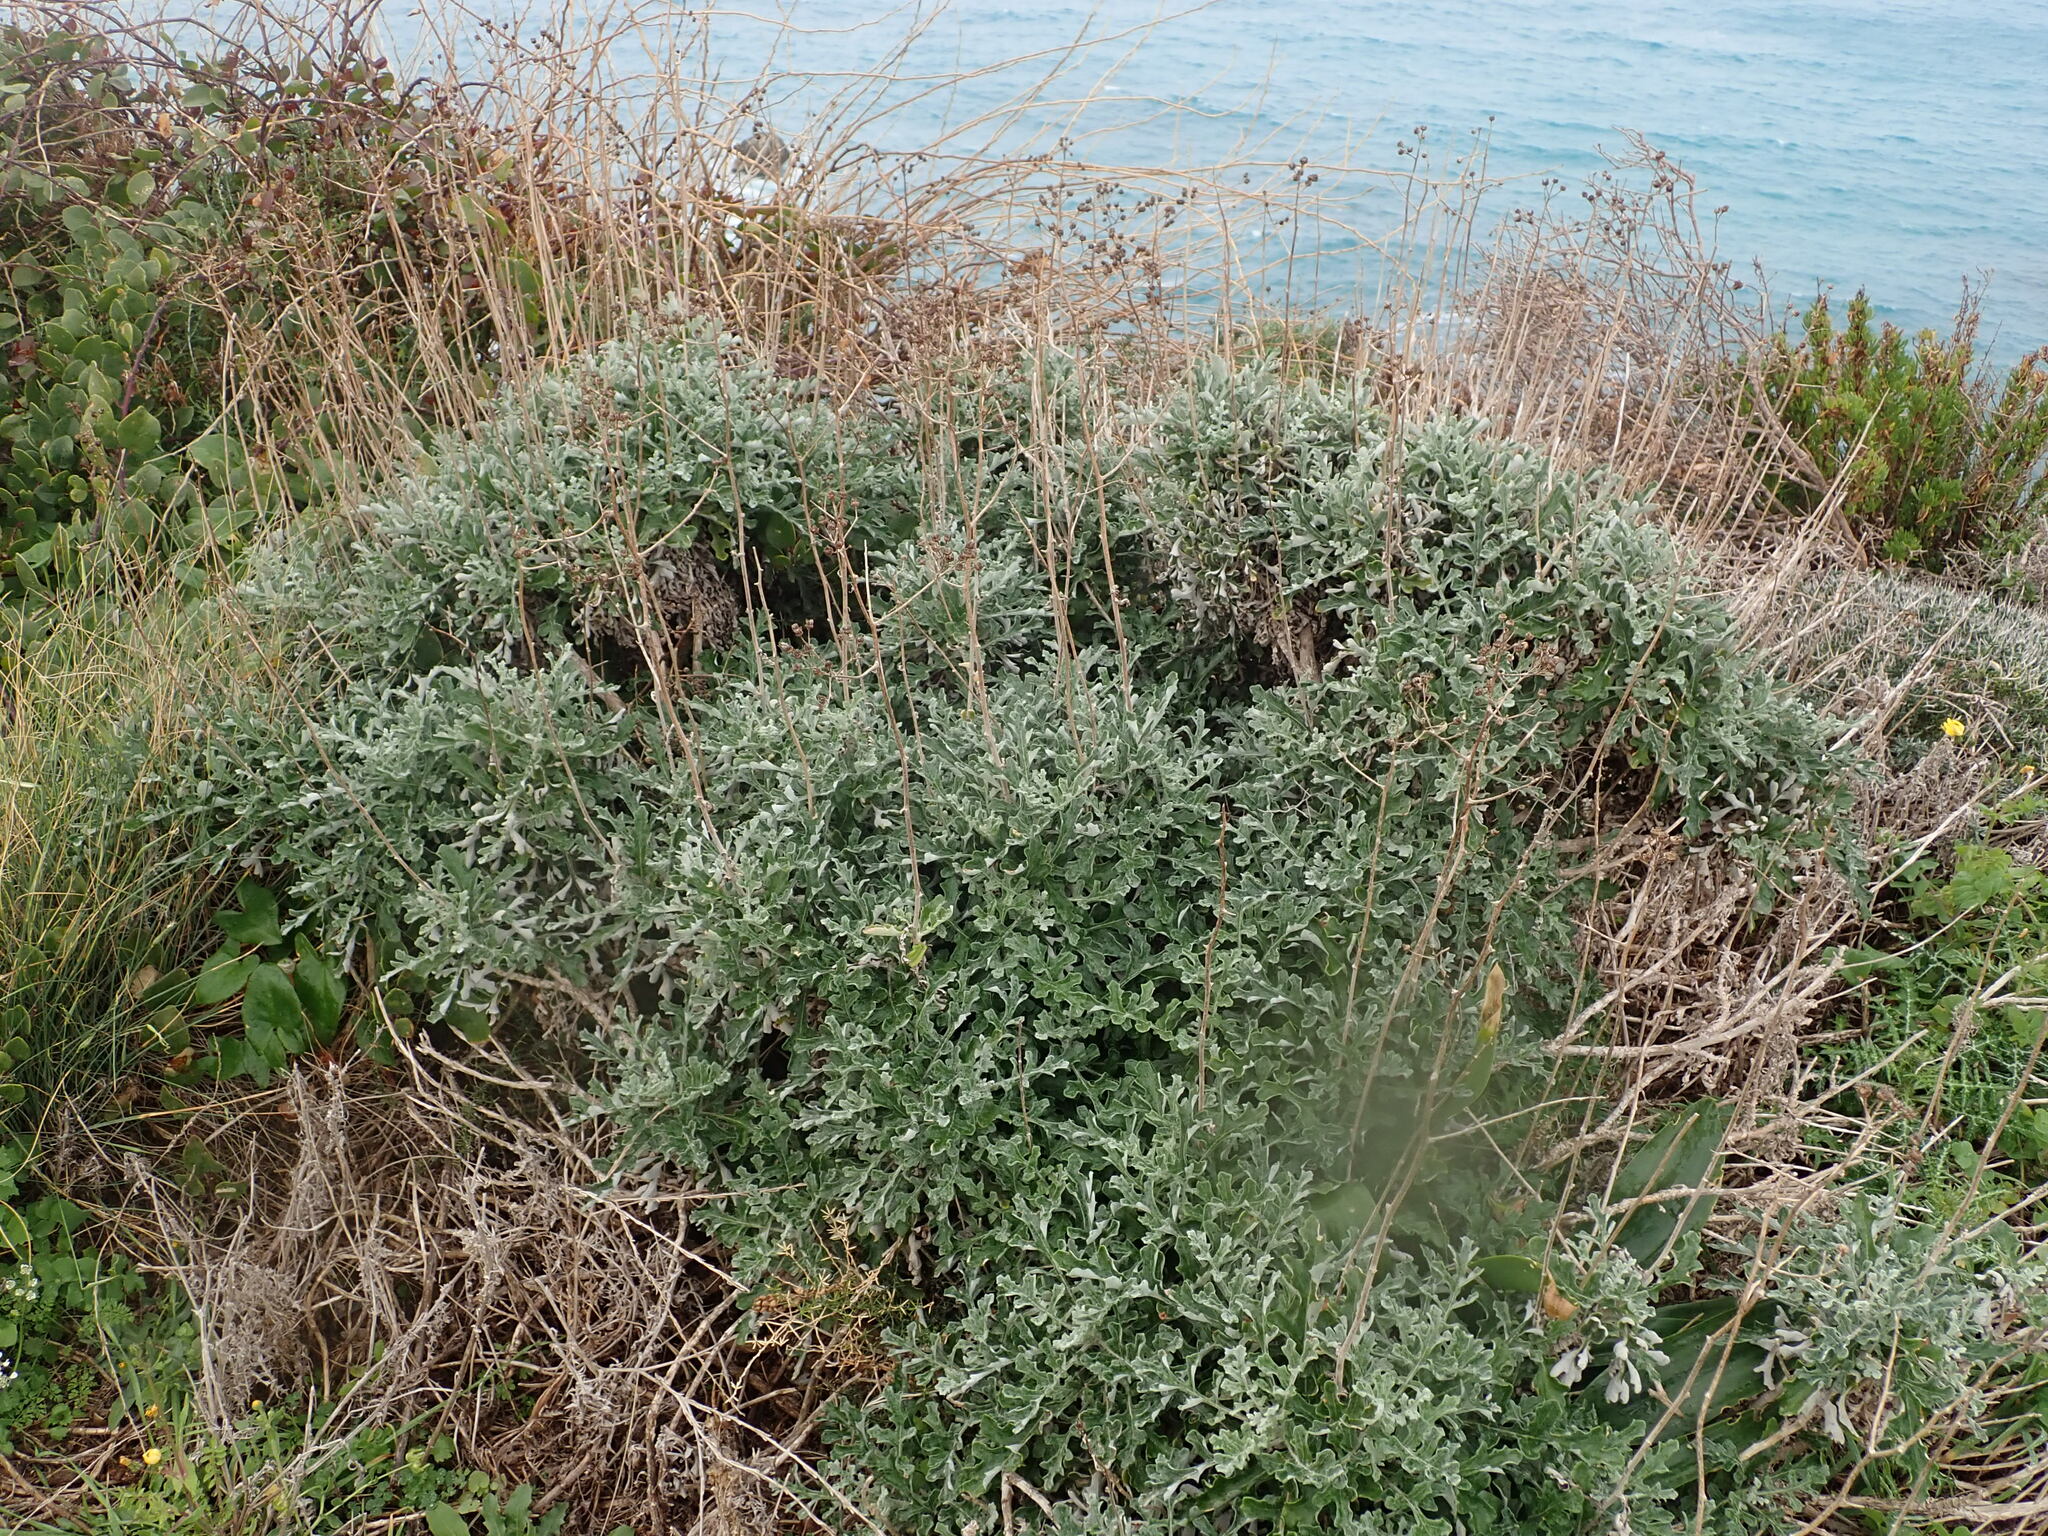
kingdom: Plantae
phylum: Tracheophyta
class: Magnoliopsida
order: Asterales
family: Asteraceae
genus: Jacobaea
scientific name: Jacobaea maritima
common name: Silver ragwort
